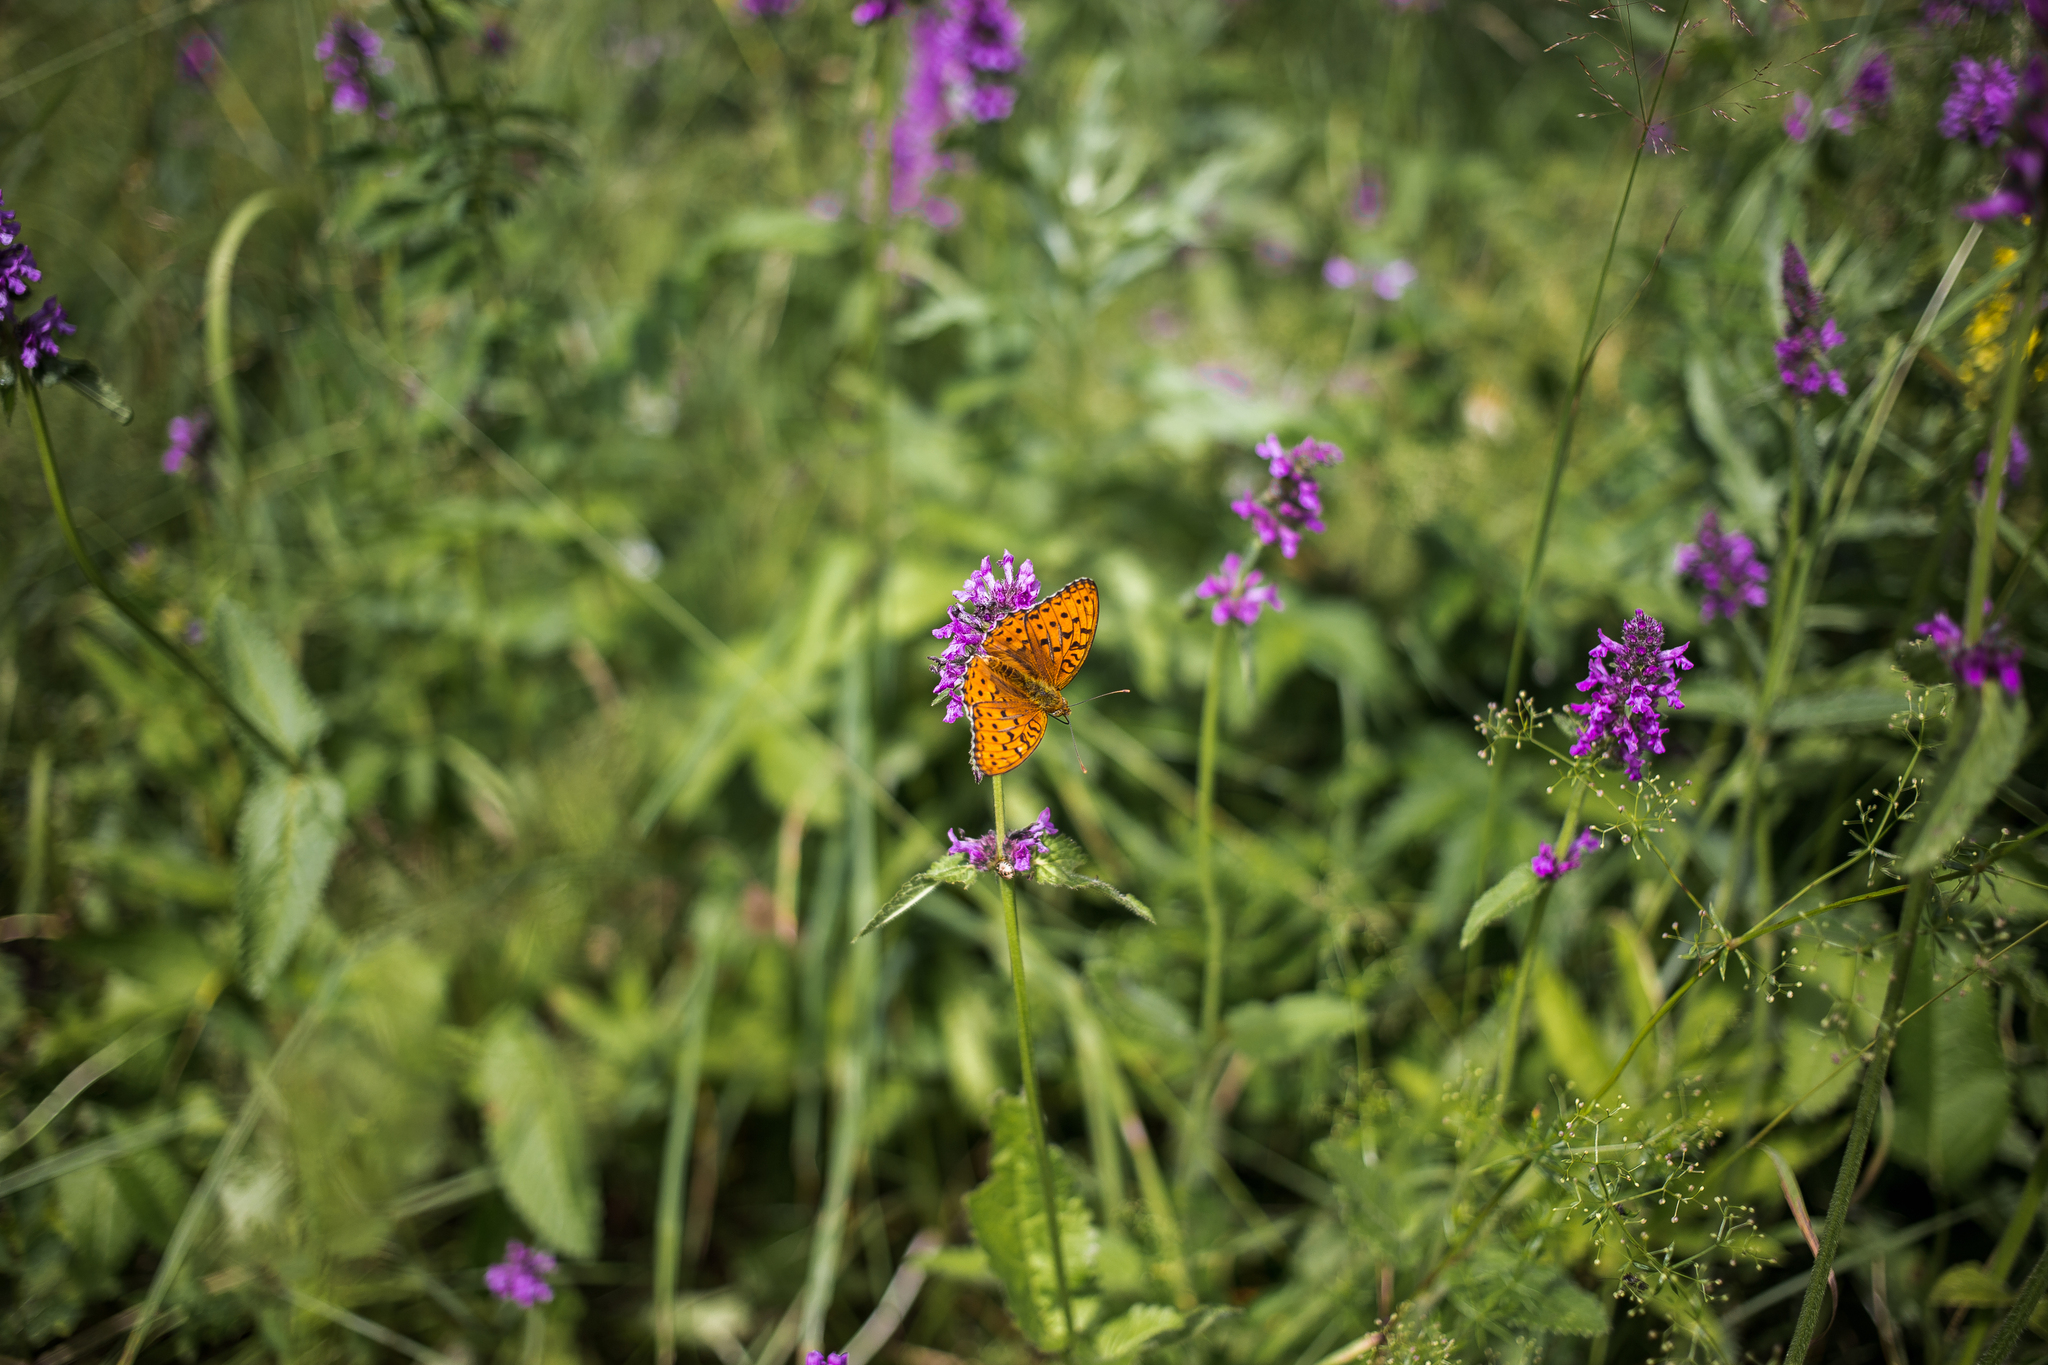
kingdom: Animalia
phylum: Arthropoda
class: Insecta
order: Lepidoptera
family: Nymphalidae
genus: Fabriciana
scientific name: Fabriciana adippe
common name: High brown fritillary
